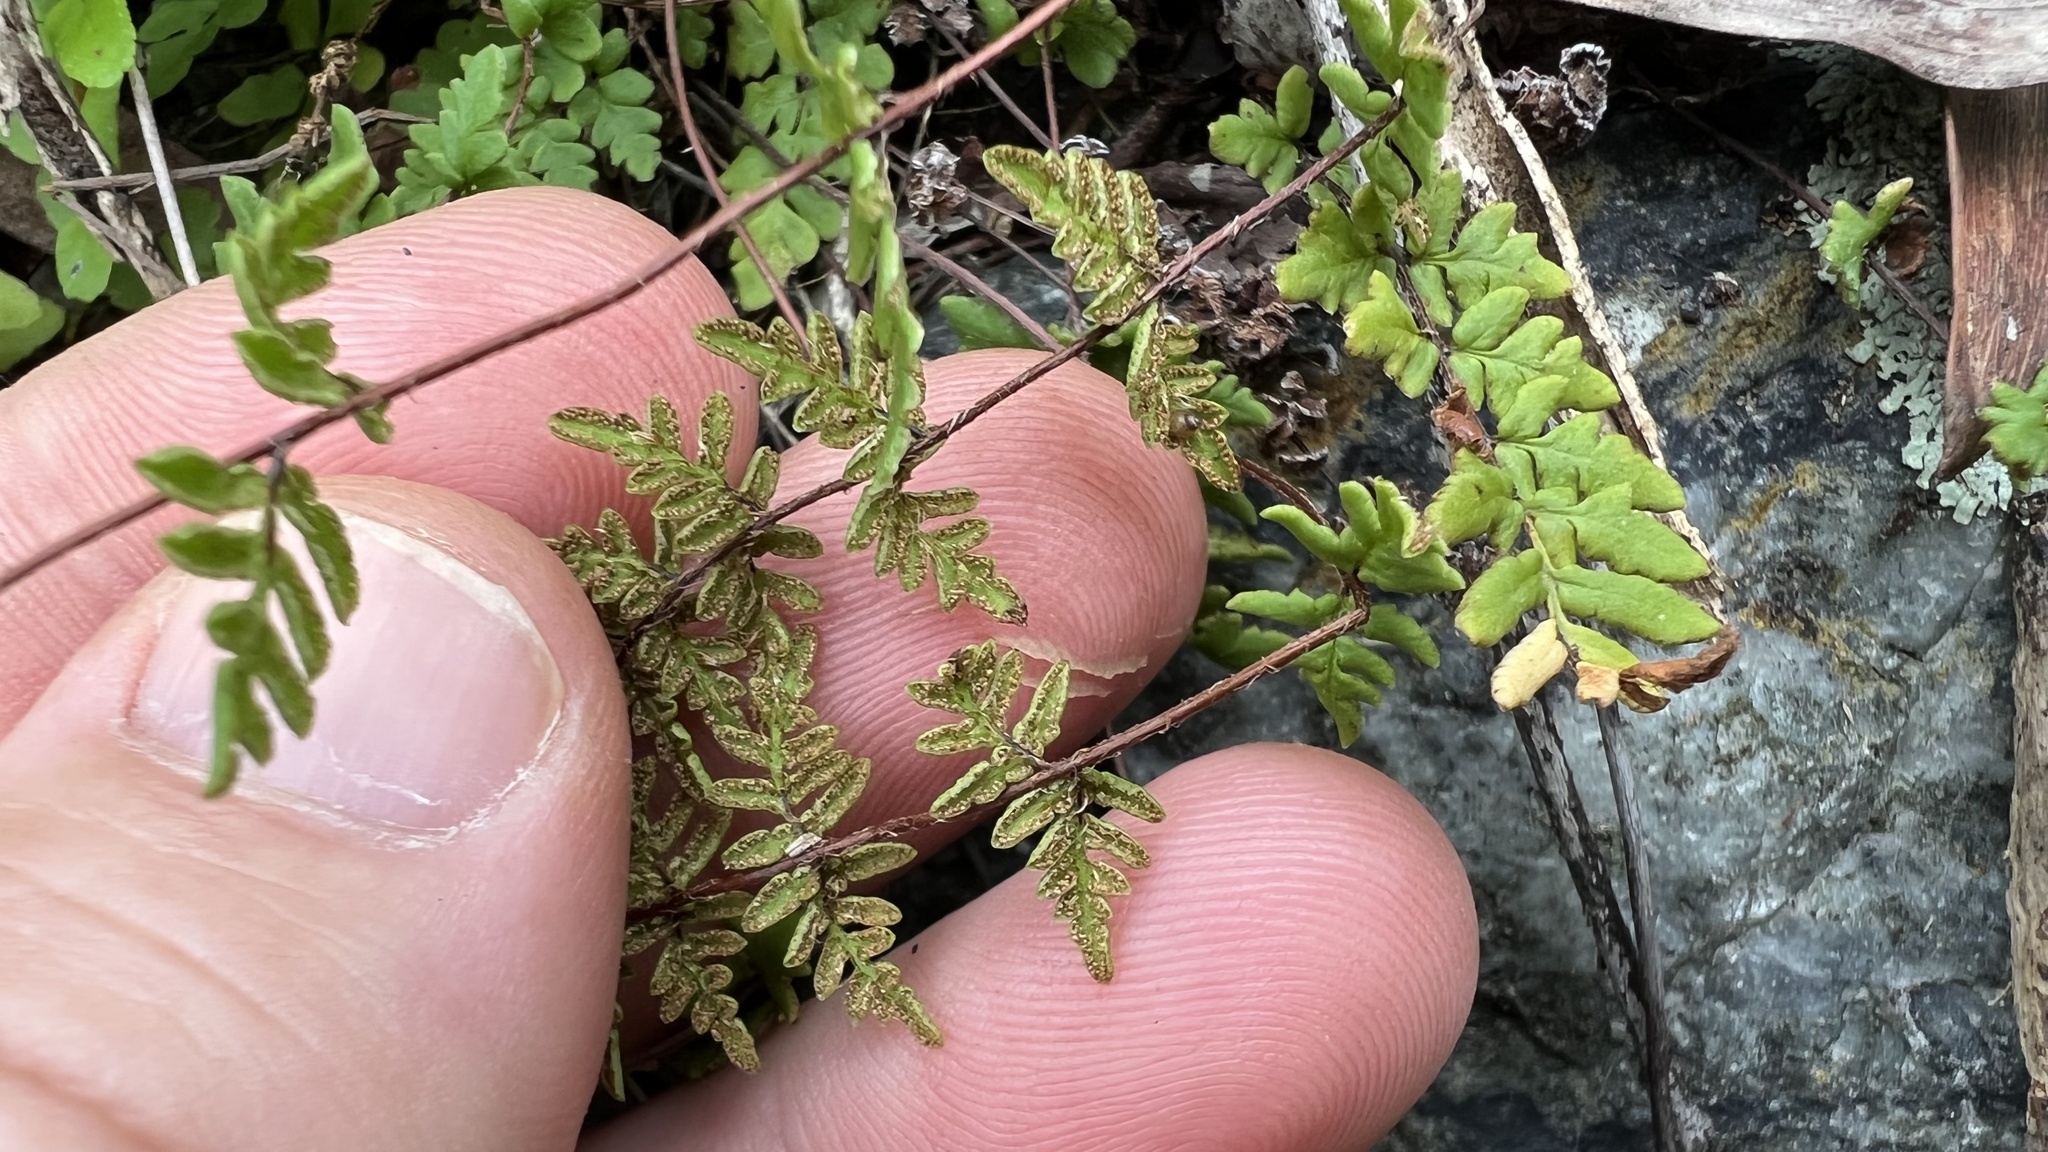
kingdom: Plantae
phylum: Tracheophyta
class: Polypodiopsida
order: Polypodiales
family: Pteridaceae
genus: Cheilanthes
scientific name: Cheilanthes distans
